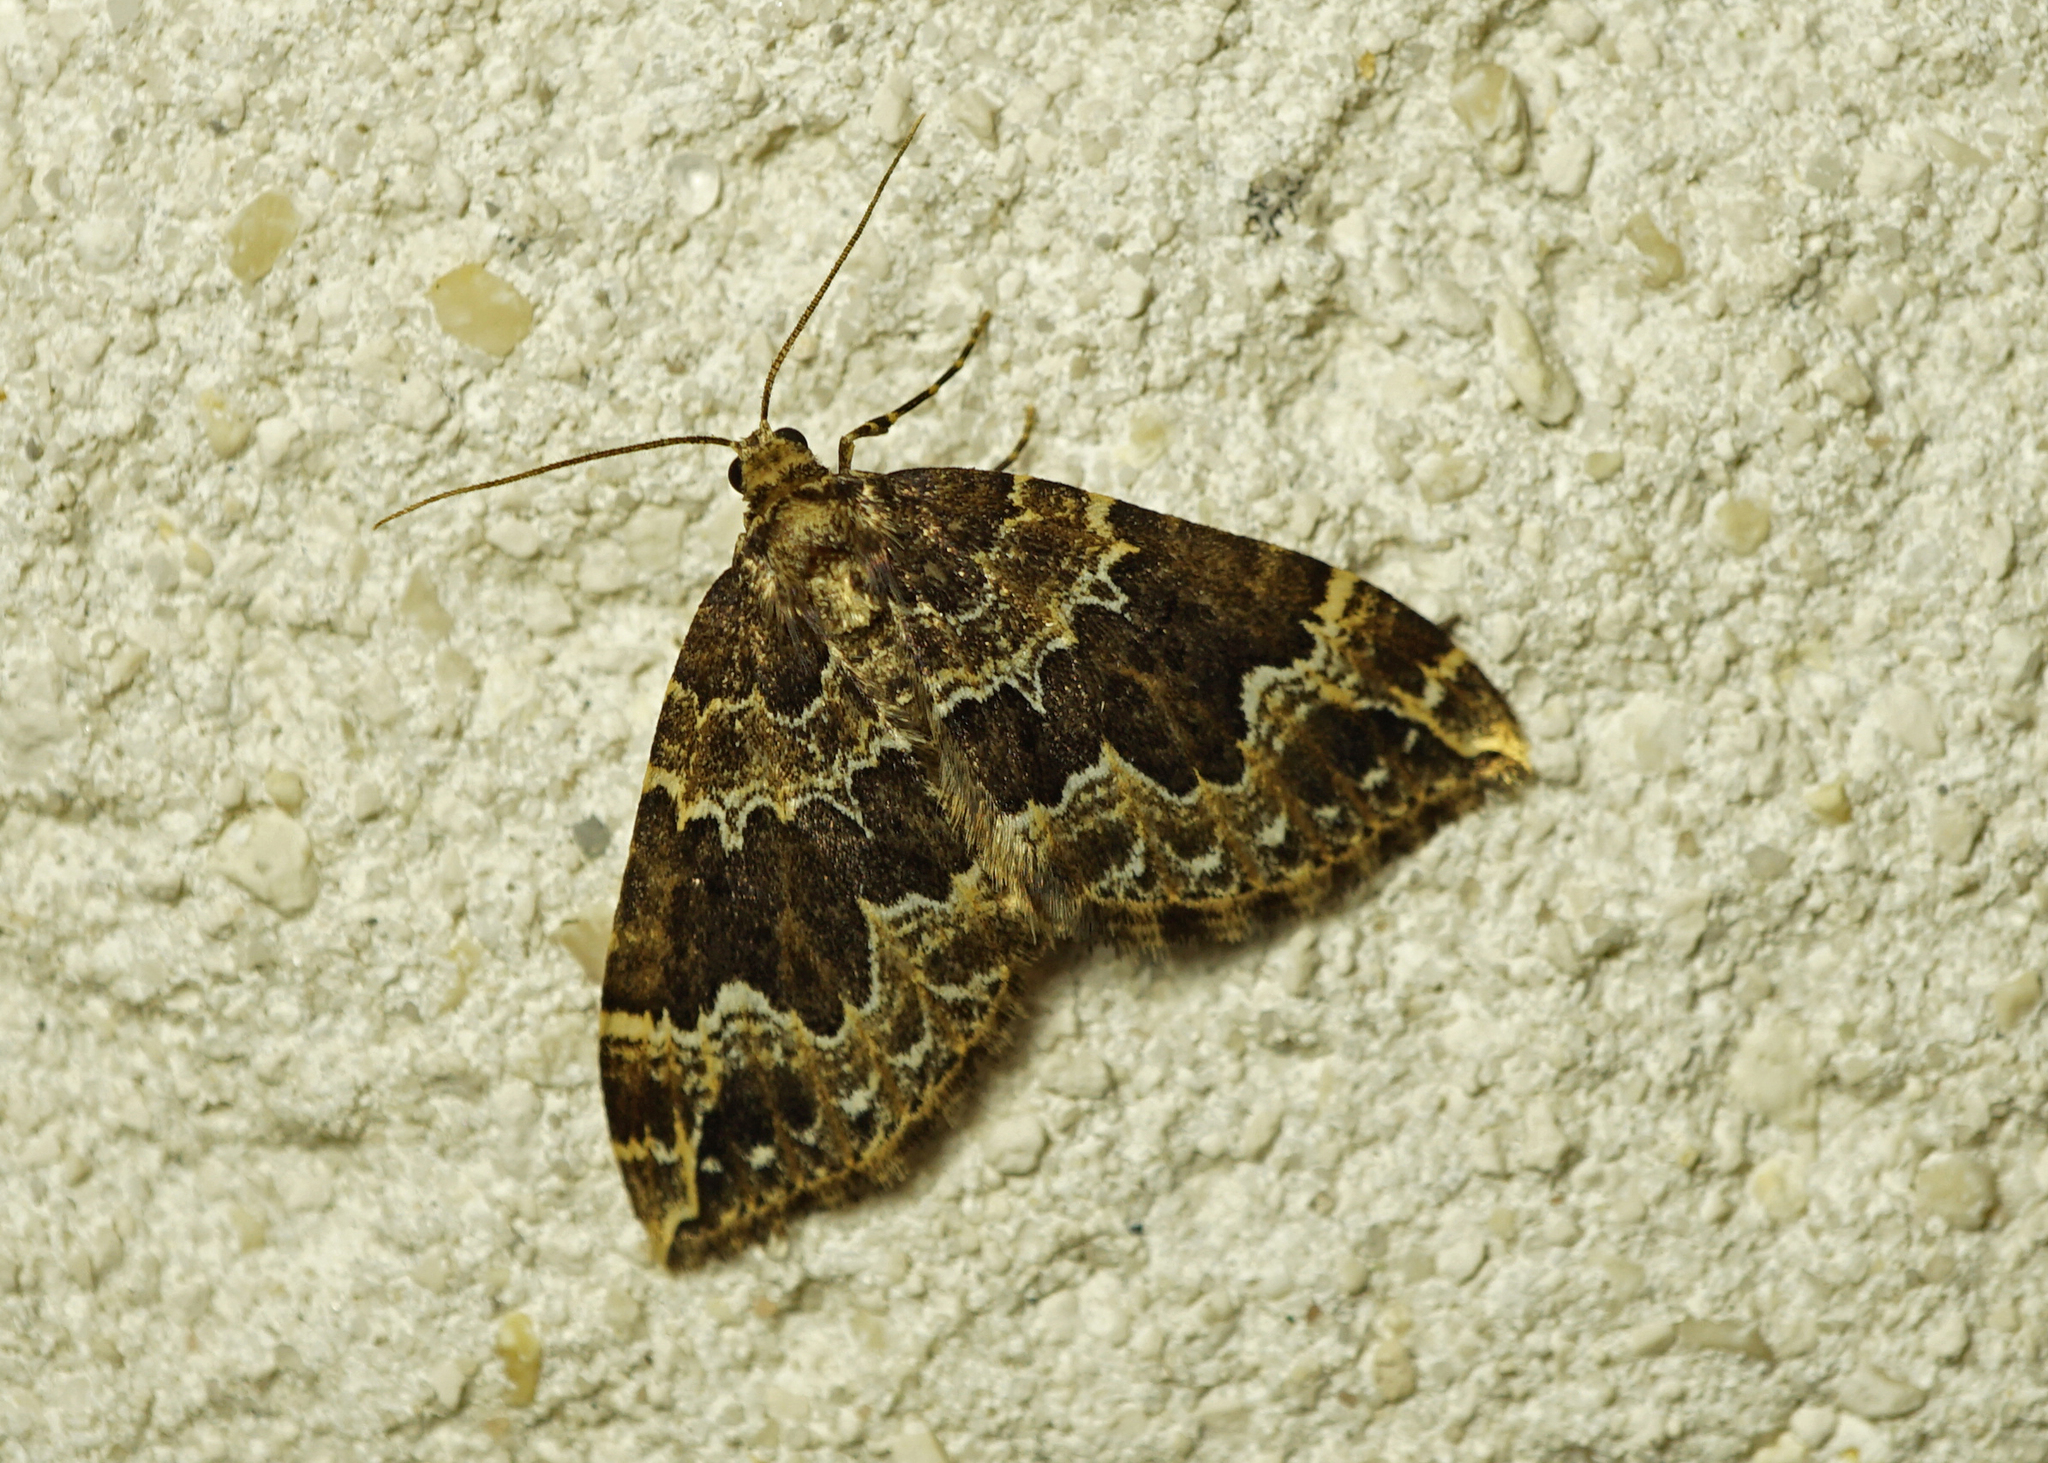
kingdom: Animalia
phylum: Arthropoda
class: Insecta
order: Lepidoptera
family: Geometridae
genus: Lampropteryx
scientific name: Lampropteryx suffumata
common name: Water carpet
